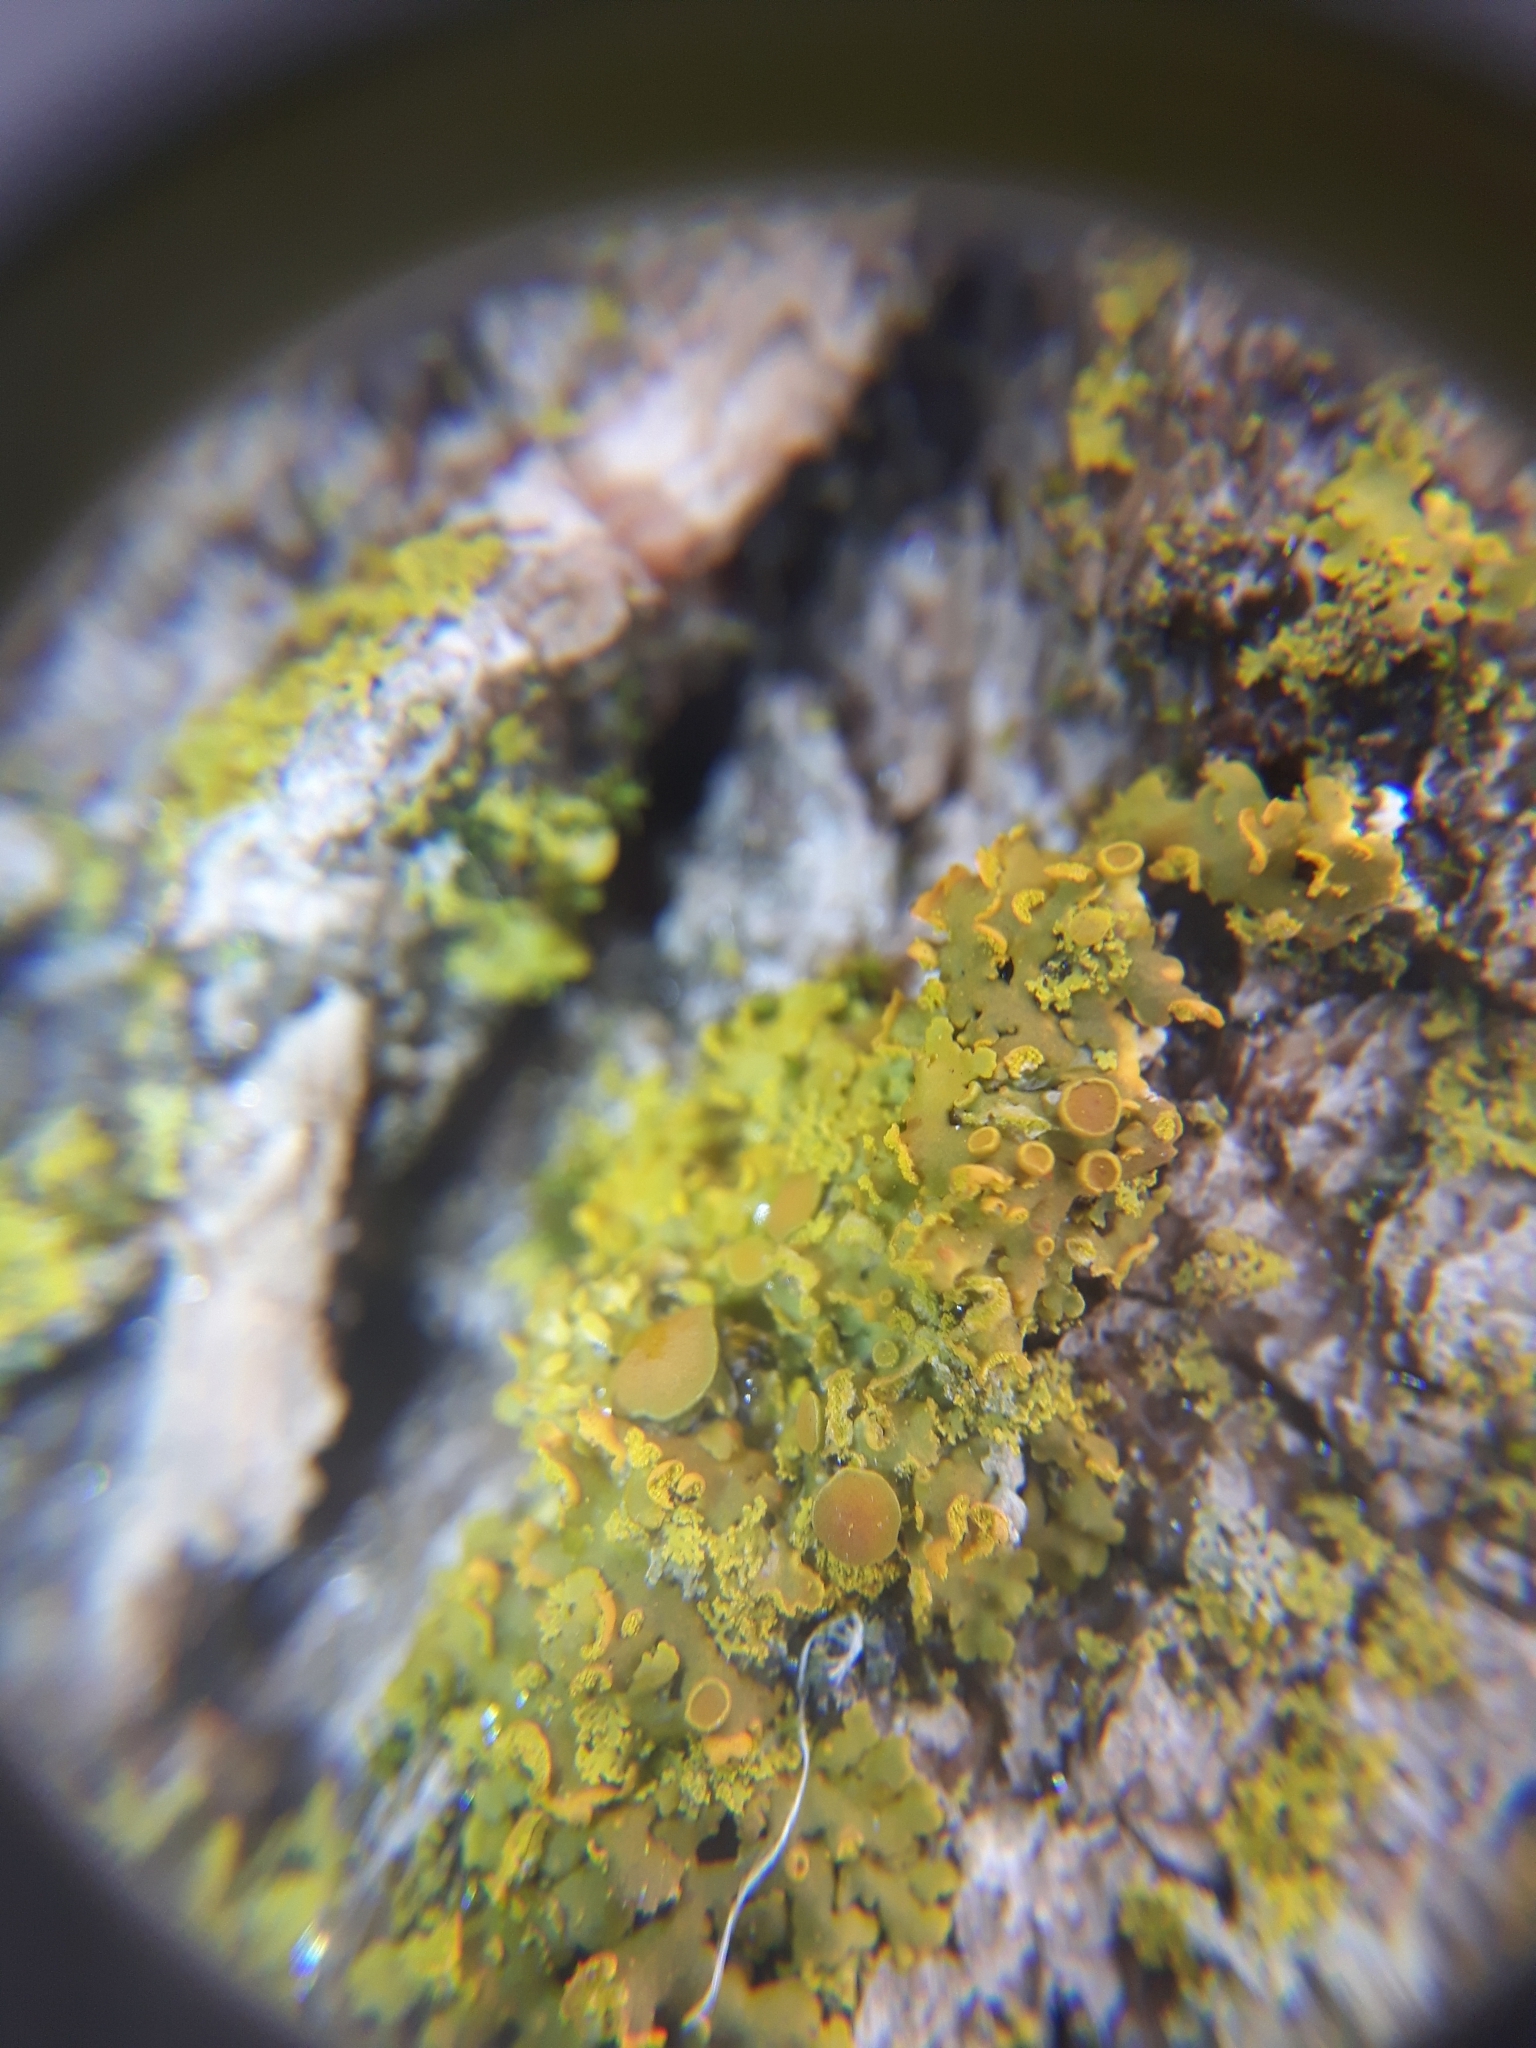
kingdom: Fungi
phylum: Ascomycota
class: Lecanoromycetes
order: Teloschistales
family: Teloschistaceae
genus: Oxneria
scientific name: Oxneria fallax
